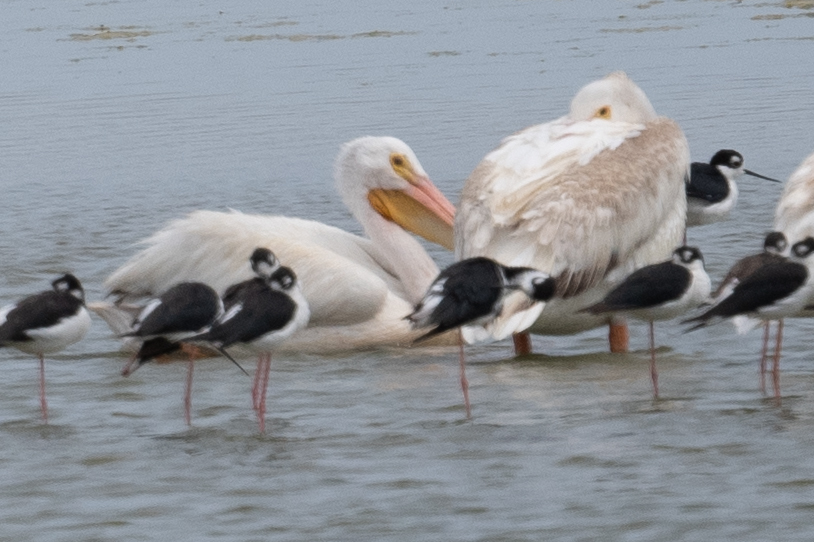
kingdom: Animalia
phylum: Chordata
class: Aves
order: Pelecaniformes
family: Pelecanidae
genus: Pelecanus
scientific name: Pelecanus erythrorhynchos
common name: American white pelican
